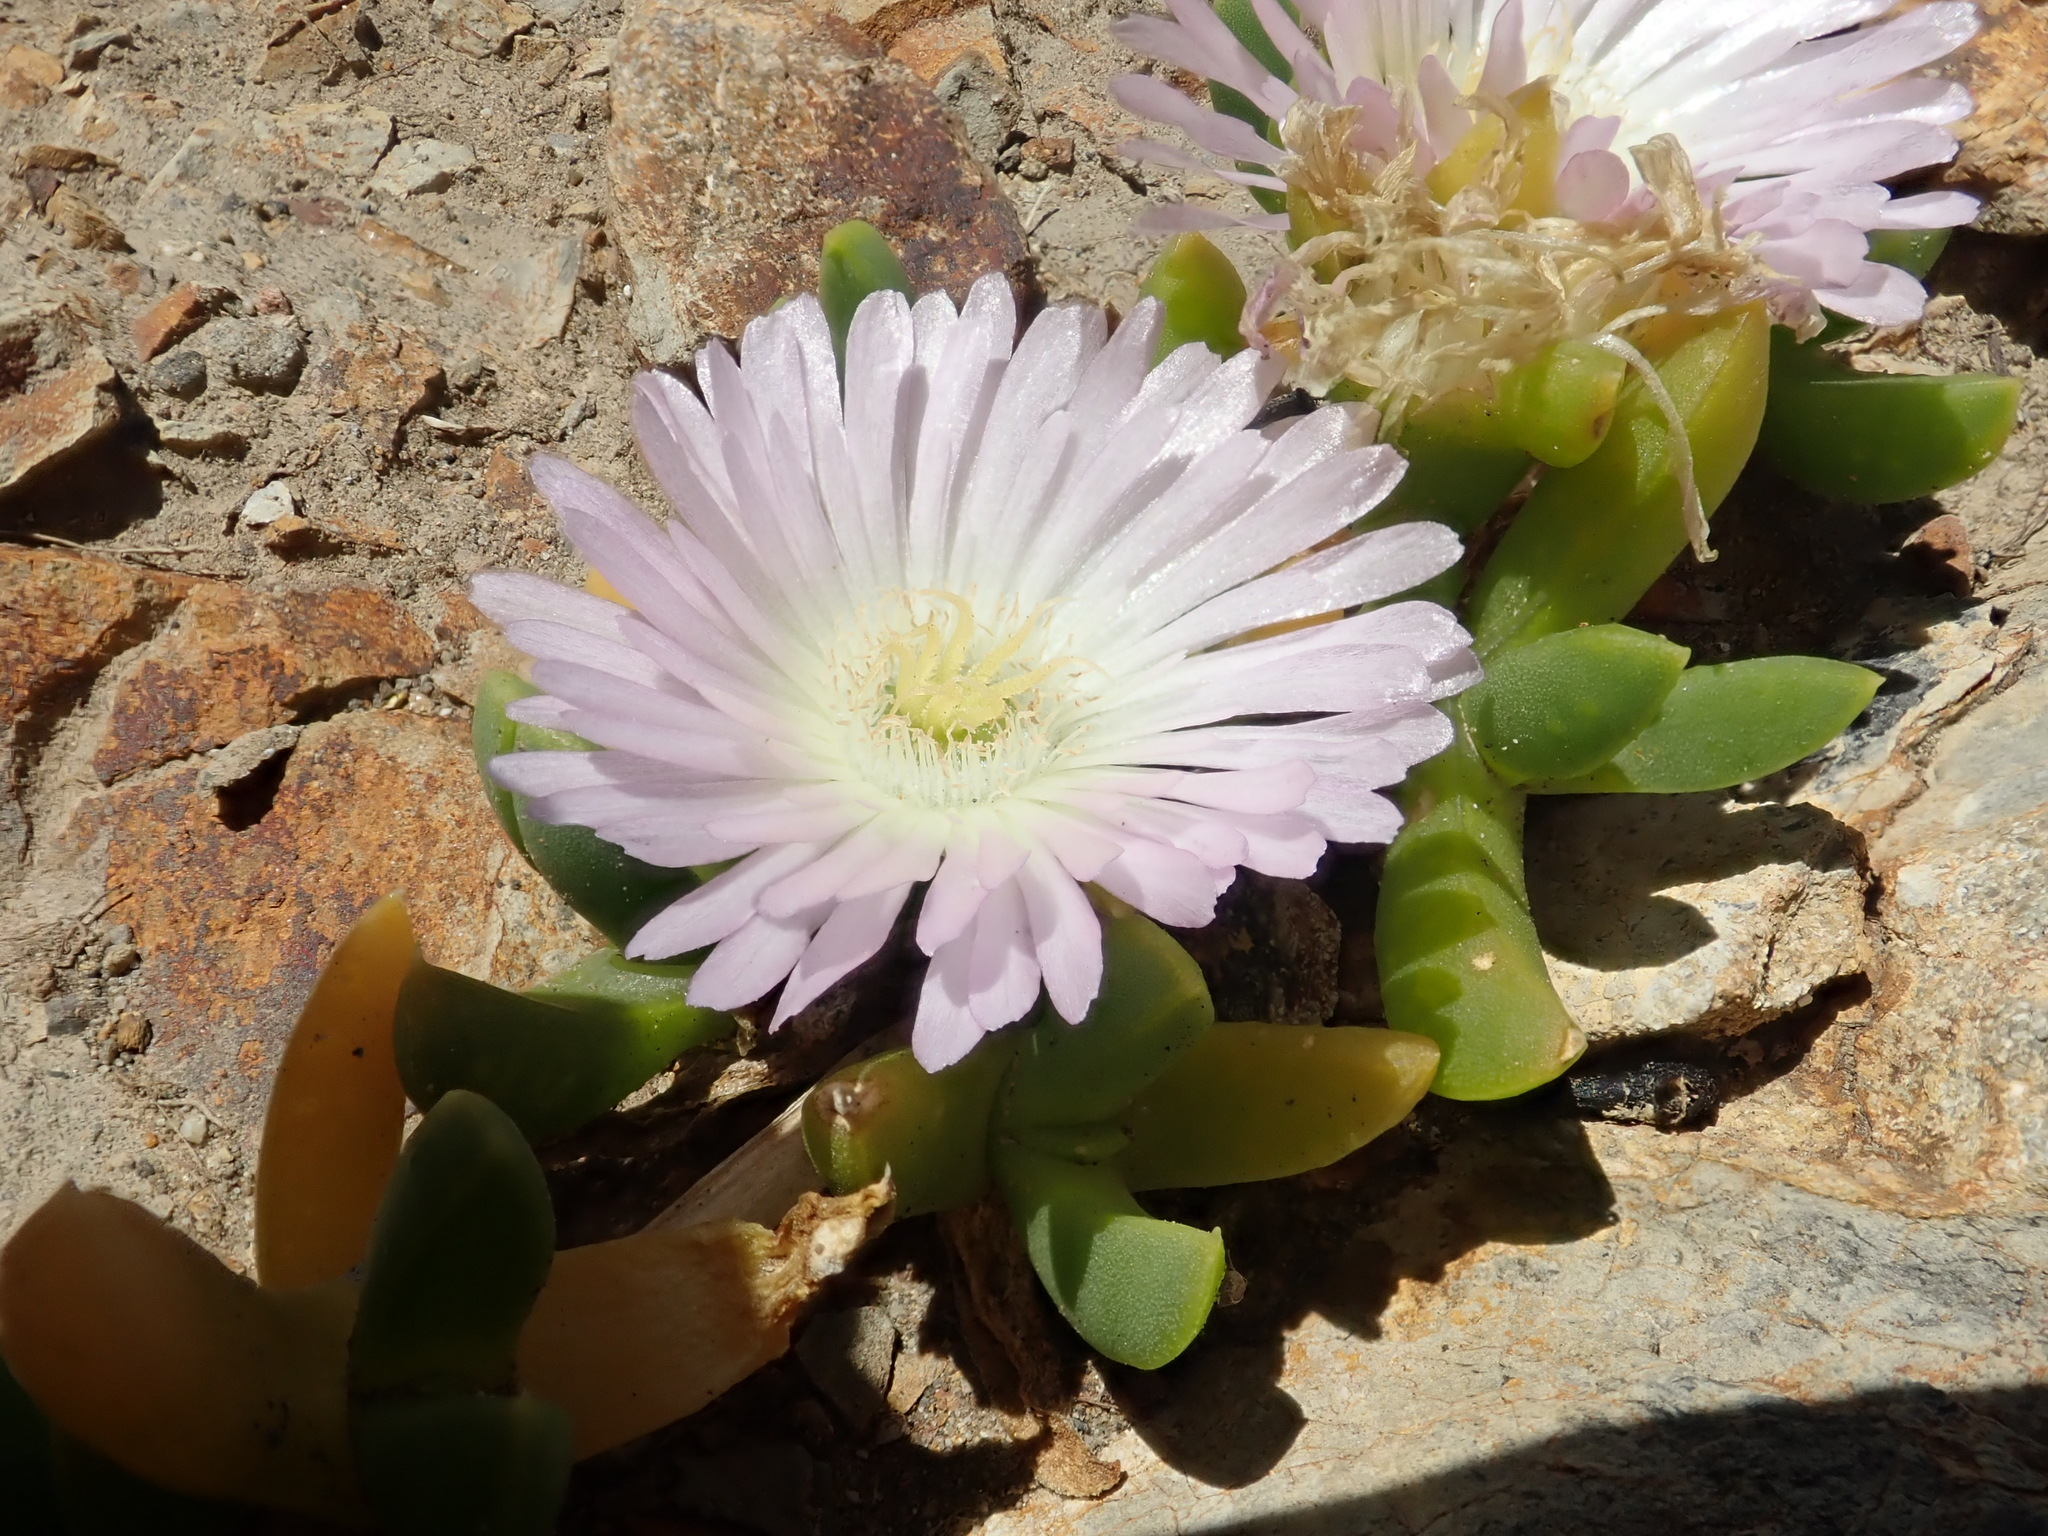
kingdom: Plantae
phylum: Tracheophyta
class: Magnoliopsida
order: Caryophyllales
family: Aizoaceae
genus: Disphyma
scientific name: Disphyma australe
